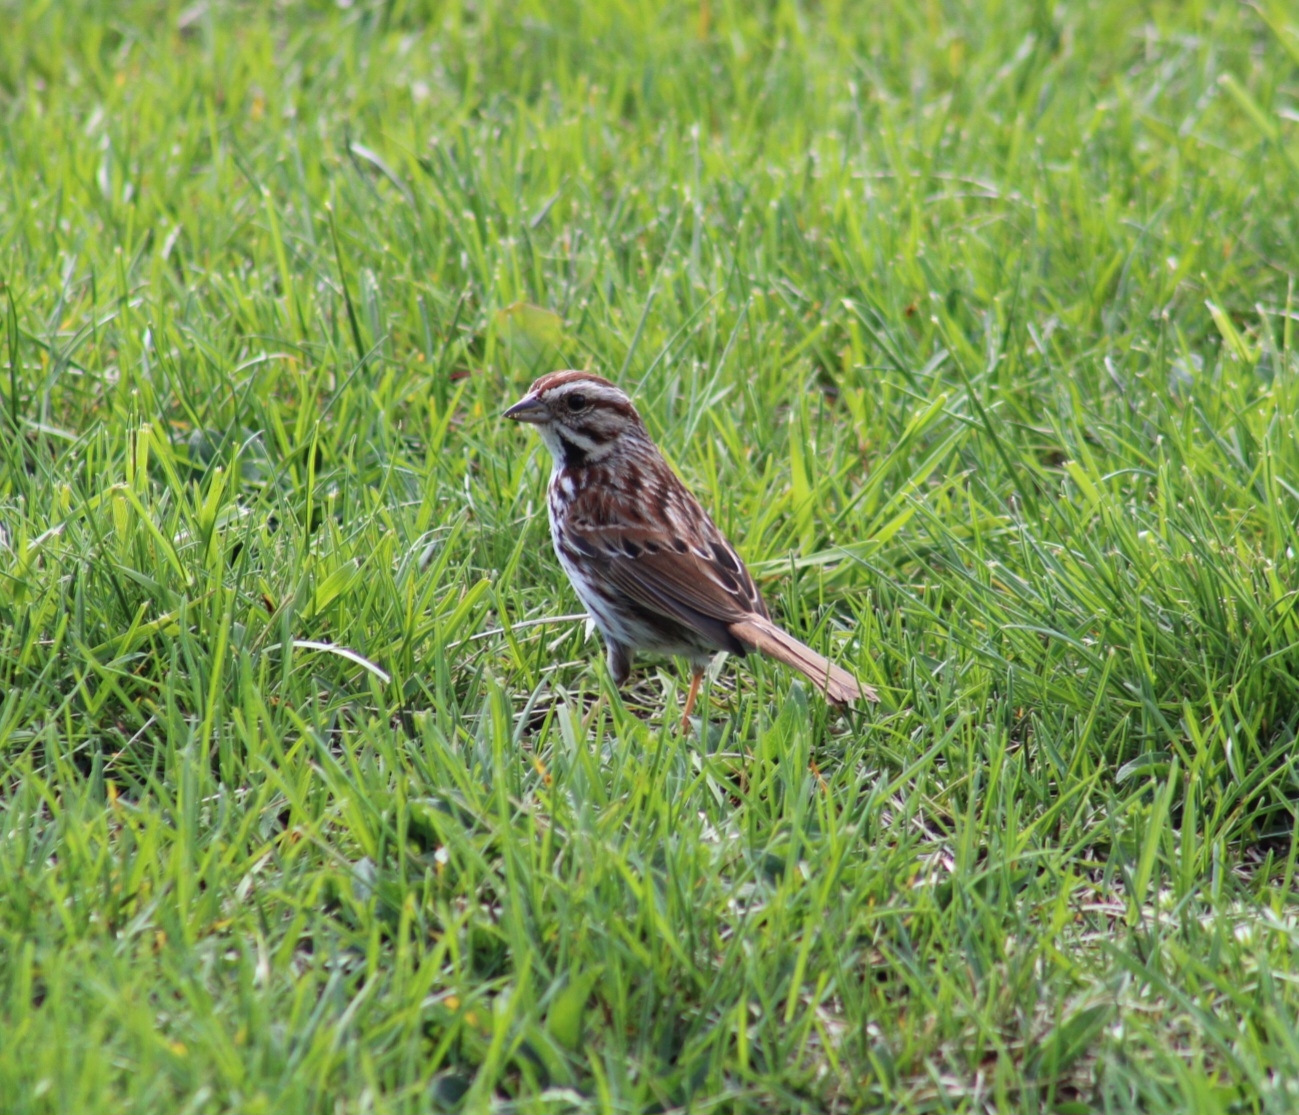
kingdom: Animalia
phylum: Chordata
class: Aves
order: Passeriformes
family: Passerellidae
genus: Melospiza
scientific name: Melospiza melodia
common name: Song sparrow
